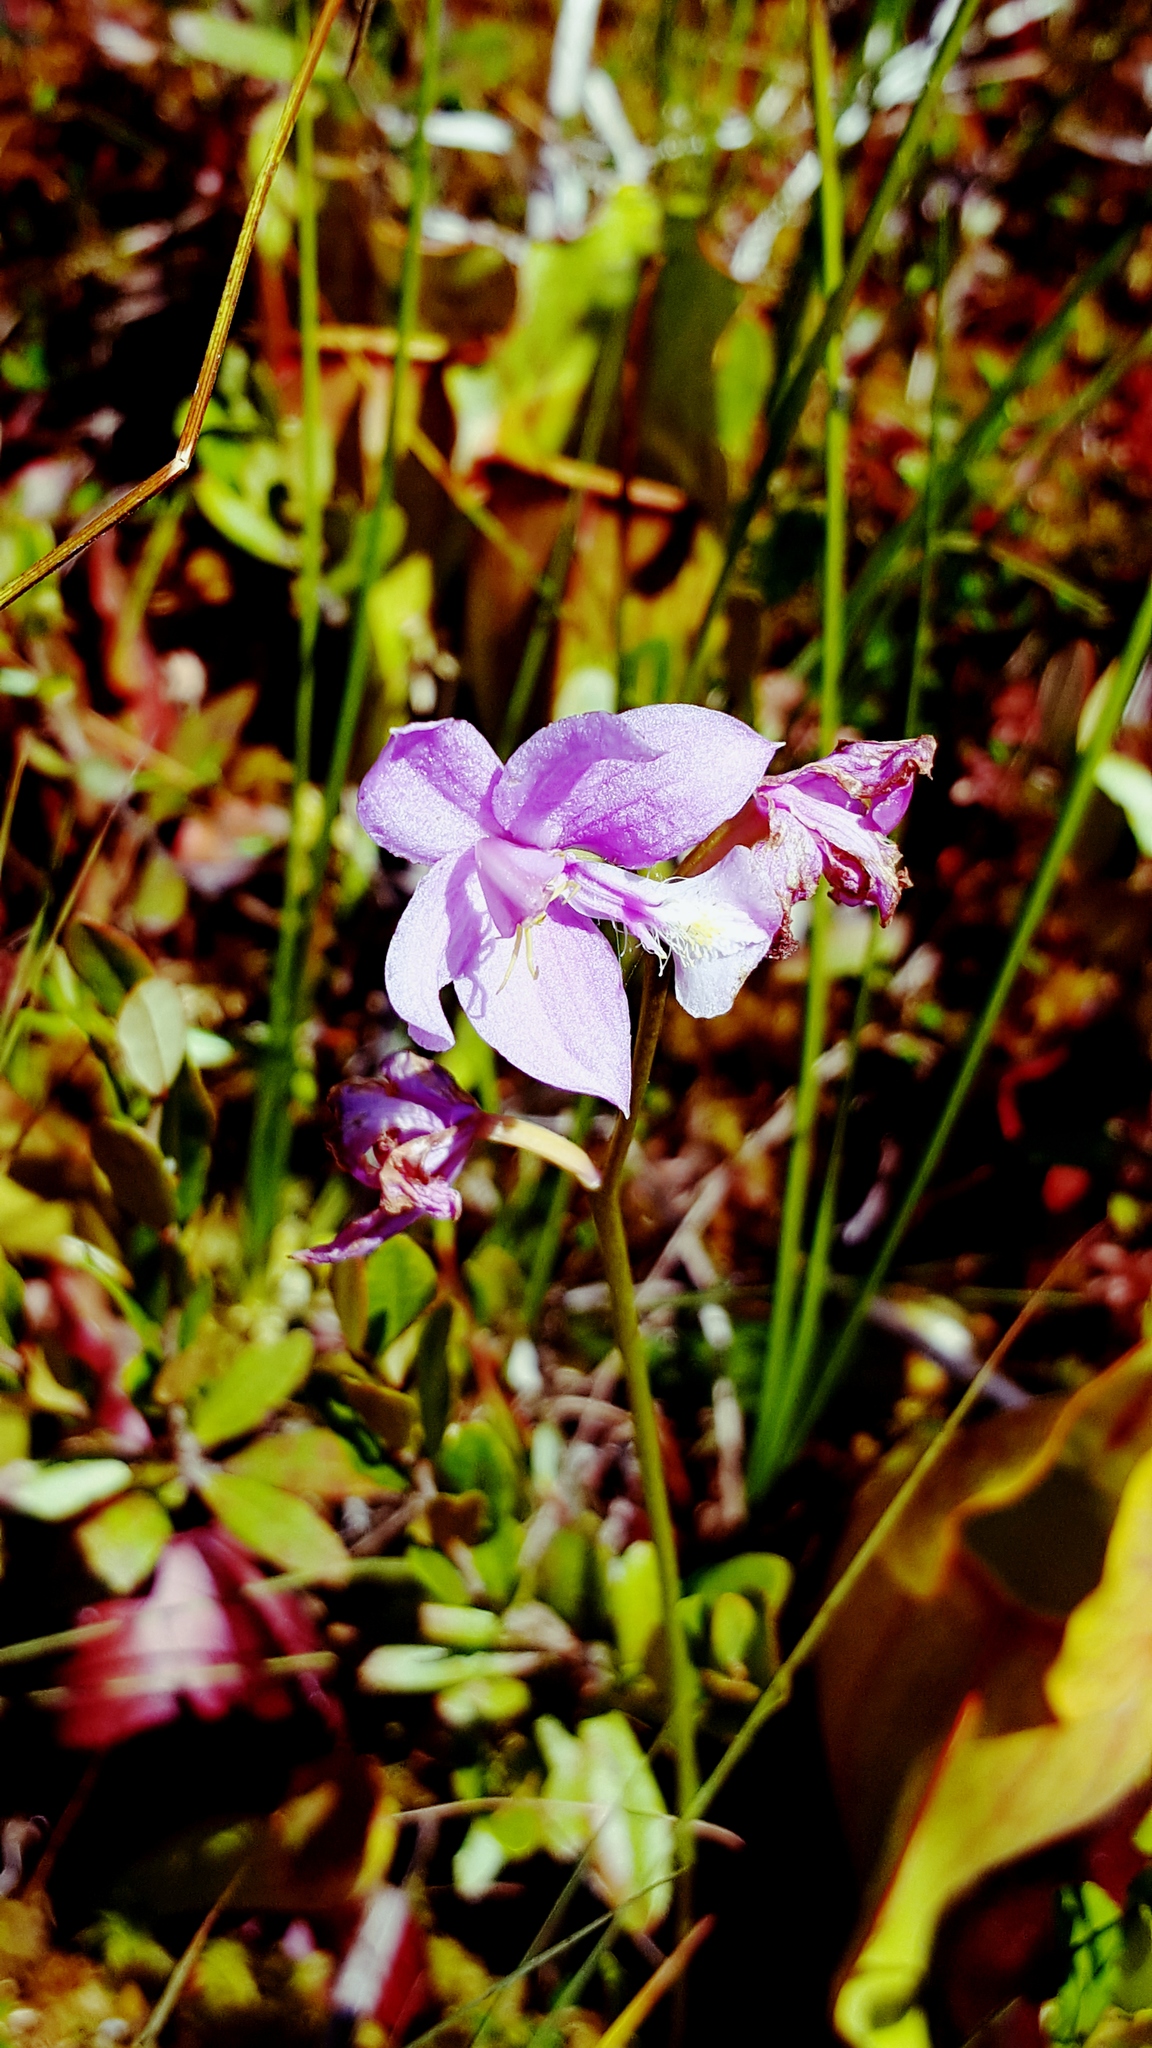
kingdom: Plantae
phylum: Tracheophyta
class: Liliopsida
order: Asparagales
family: Orchidaceae
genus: Calopogon
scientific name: Calopogon tuberosus
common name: Grass-pink
